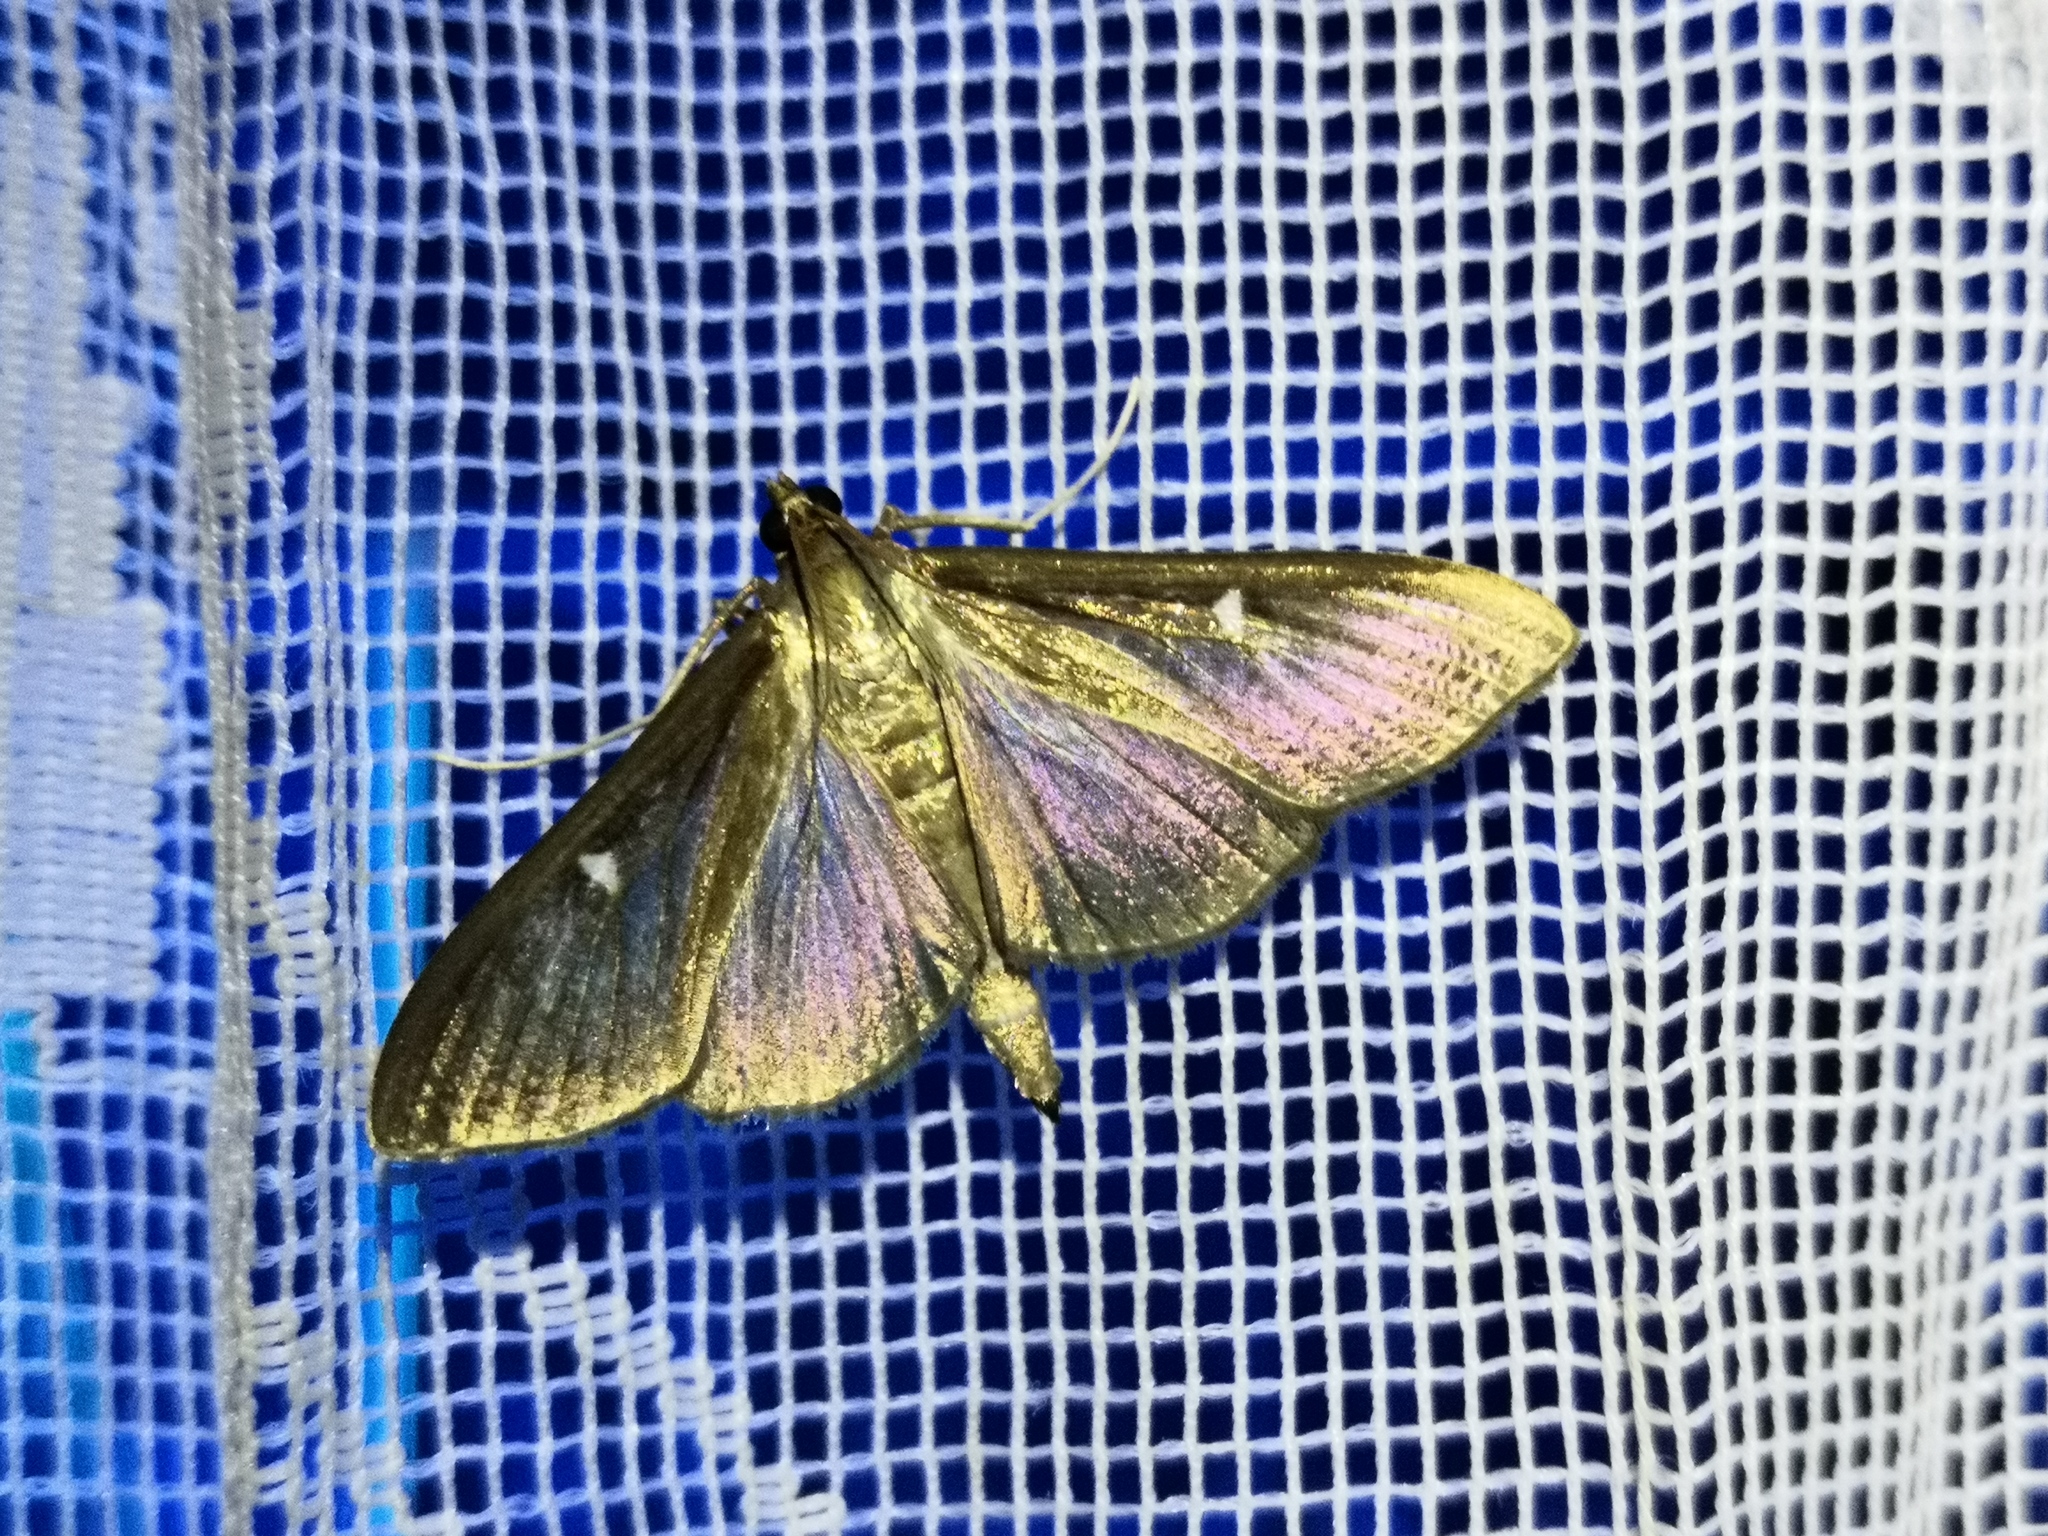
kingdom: Animalia
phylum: Arthropoda
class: Insecta
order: Lepidoptera
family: Crambidae
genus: Cydalima
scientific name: Cydalima perspectalis
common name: Box tree moth
